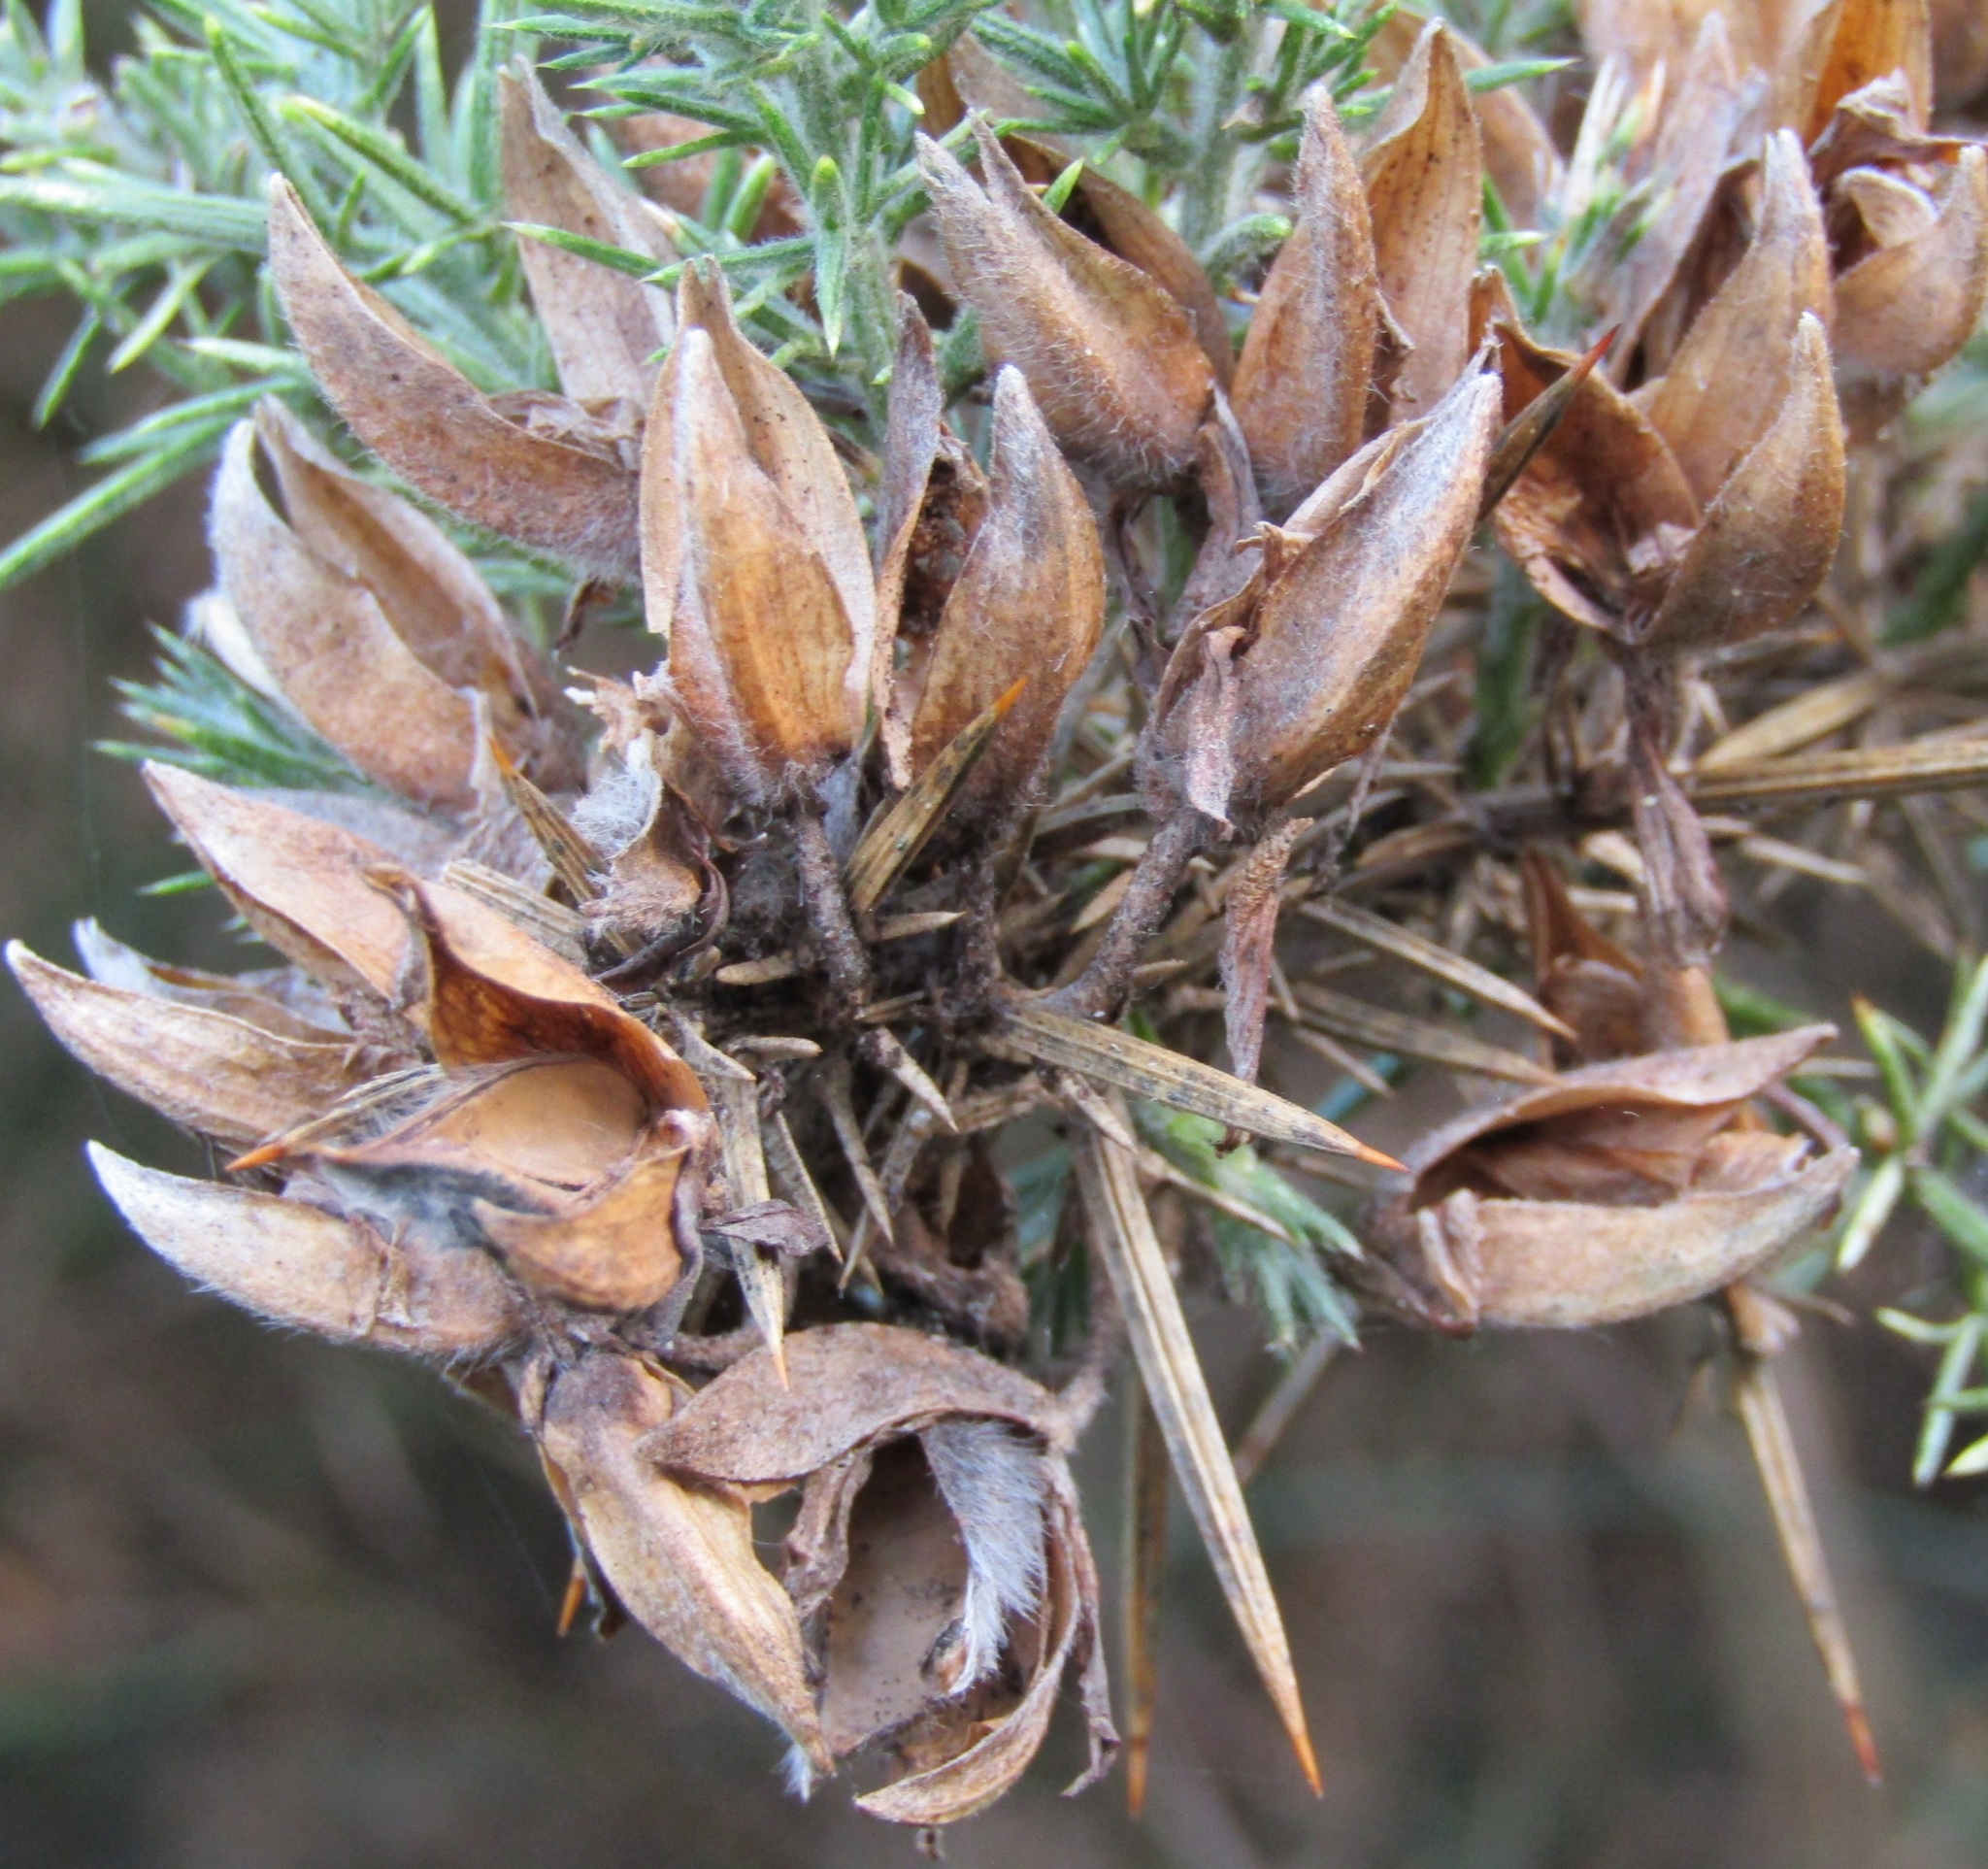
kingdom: Plantae
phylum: Tracheophyta
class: Magnoliopsida
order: Fabales
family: Fabaceae
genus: Ulex
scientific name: Ulex europaeus
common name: Common gorse
